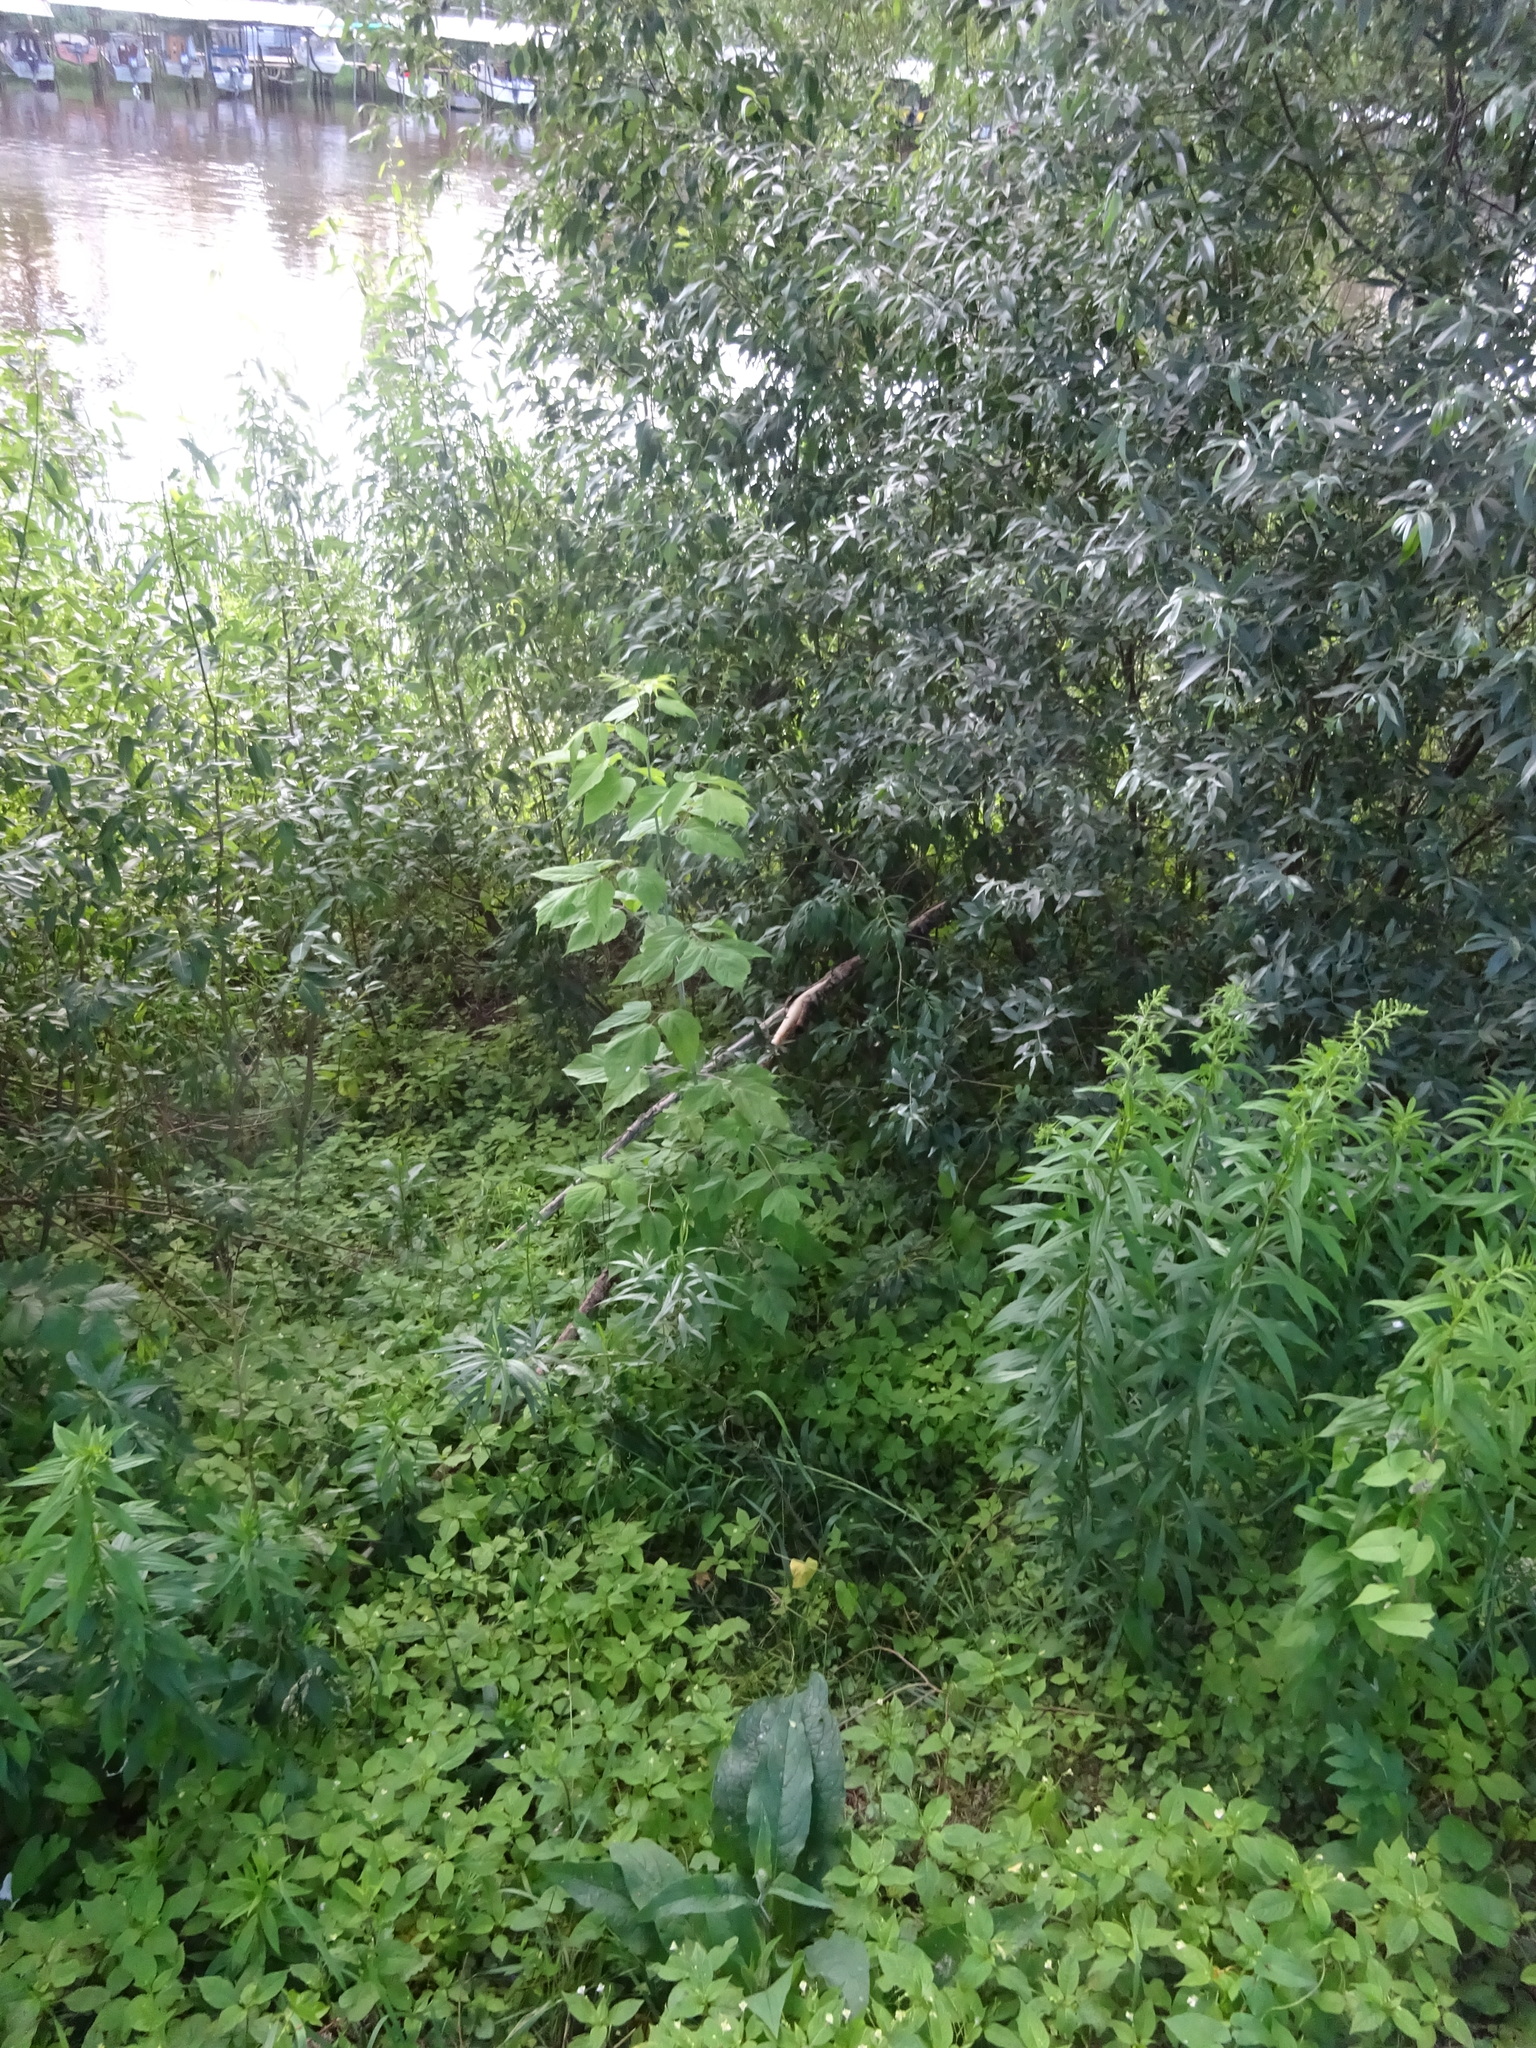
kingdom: Plantae
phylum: Tracheophyta
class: Magnoliopsida
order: Sapindales
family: Sapindaceae
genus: Acer
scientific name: Acer negundo
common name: Ashleaf maple
